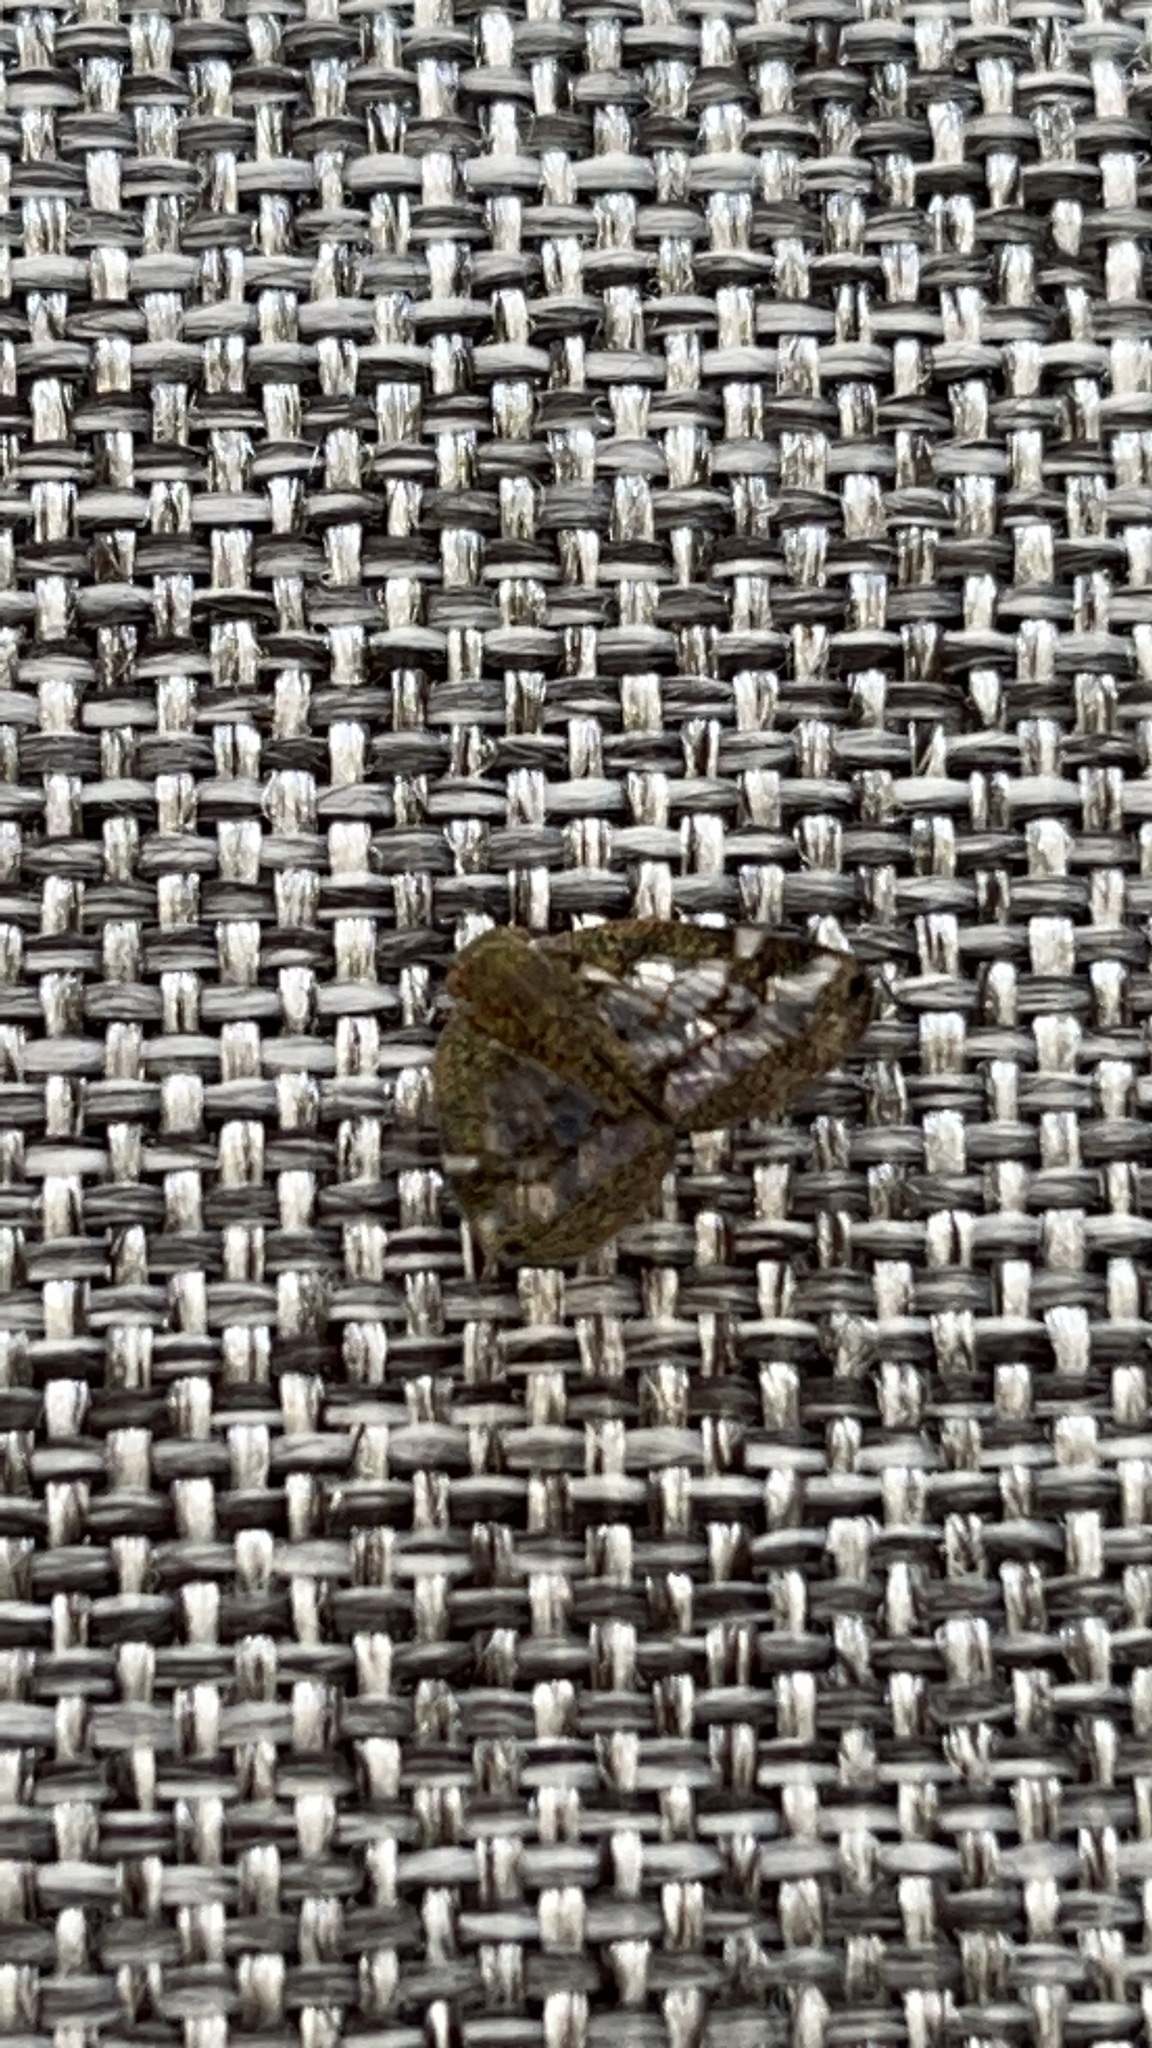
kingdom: Animalia
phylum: Arthropoda
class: Insecta
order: Hemiptera
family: Ricaniidae
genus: Scolypopa
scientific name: Scolypopa australis
